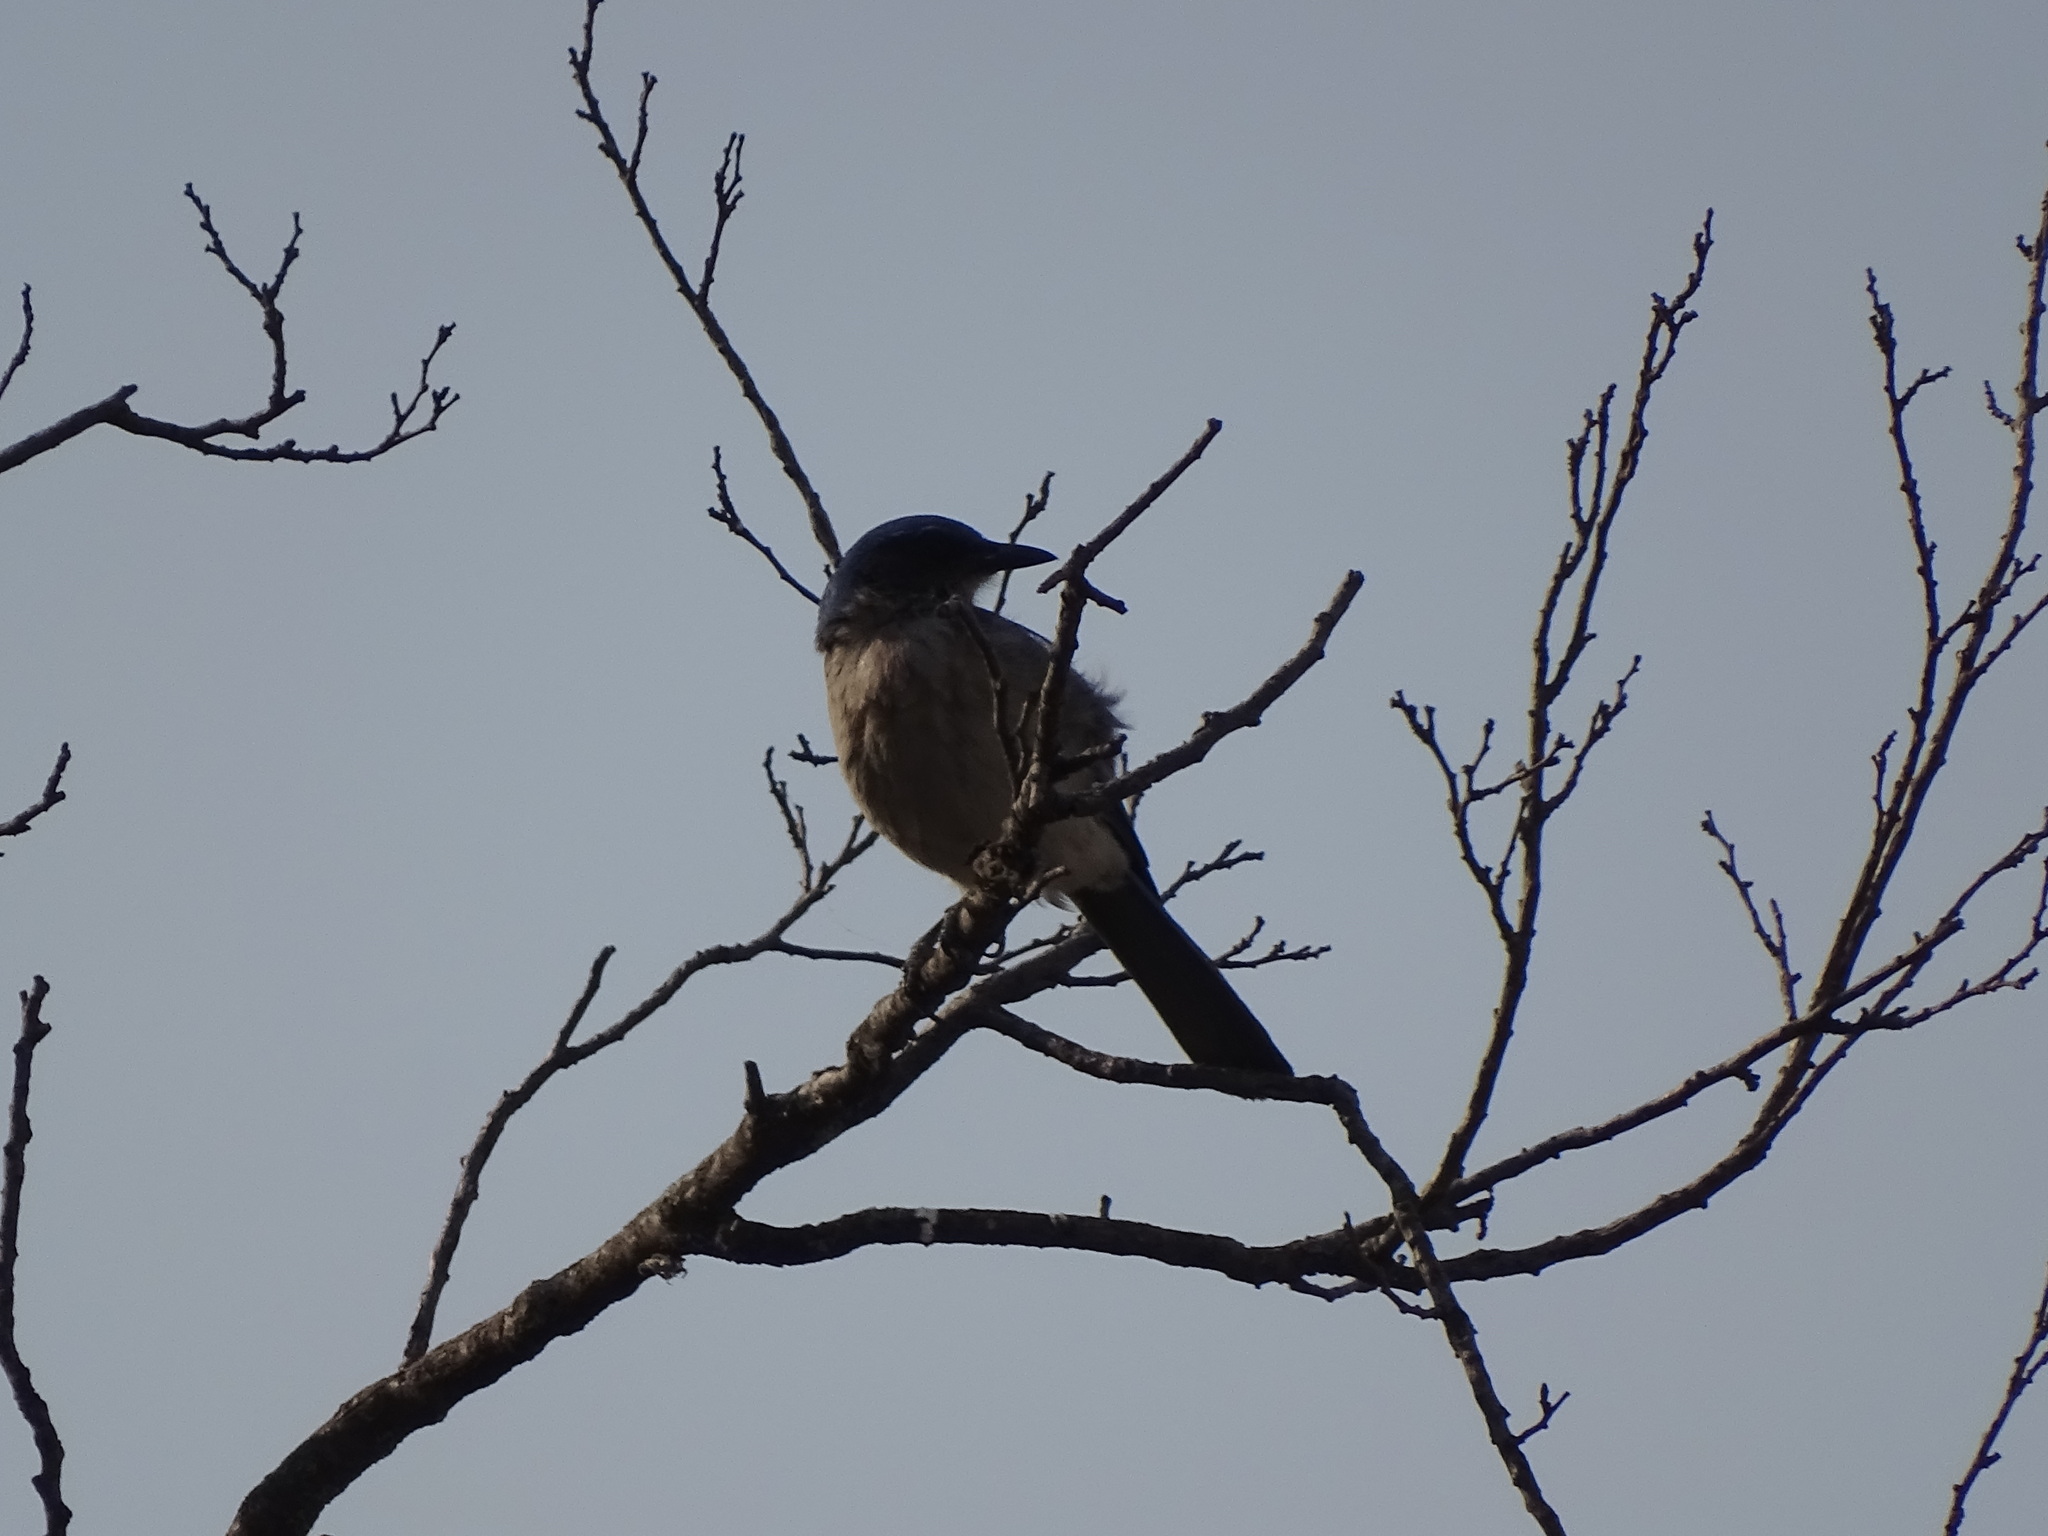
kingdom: Animalia
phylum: Chordata
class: Aves
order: Passeriformes
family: Corvidae
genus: Aphelocoma
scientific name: Aphelocoma woodhouseii
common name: Woodhouse's scrub-jay
